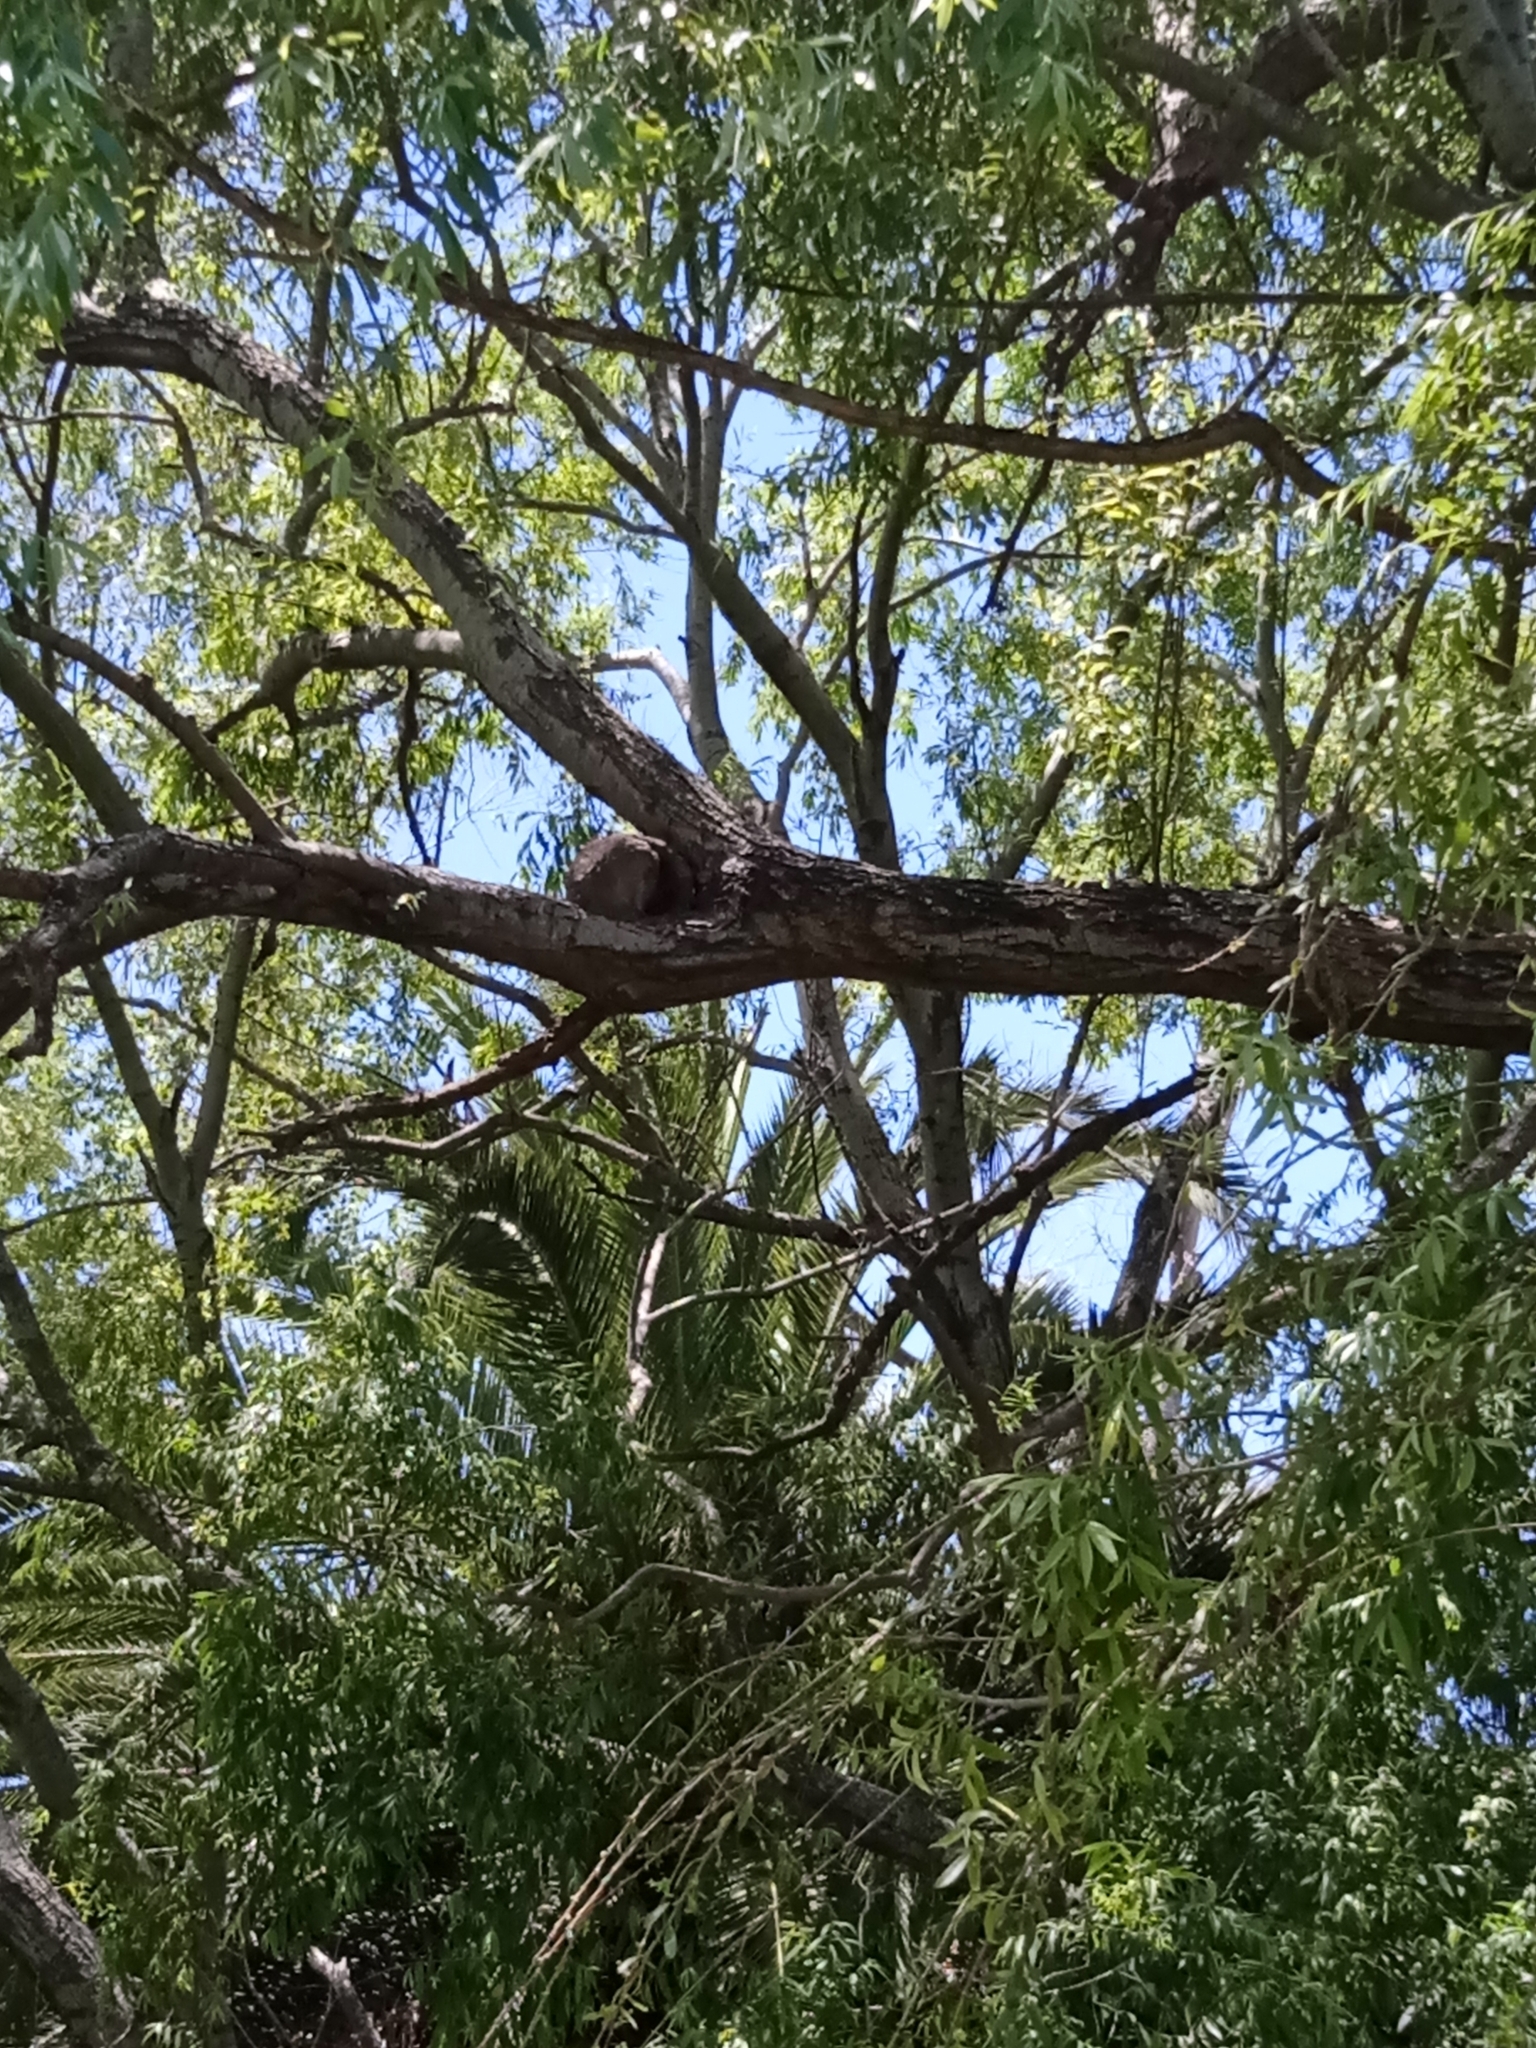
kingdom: Animalia
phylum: Chordata
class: Aves
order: Passeriformes
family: Furnariidae
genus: Furnarius
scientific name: Furnarius rufus
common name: Rufous hornero
